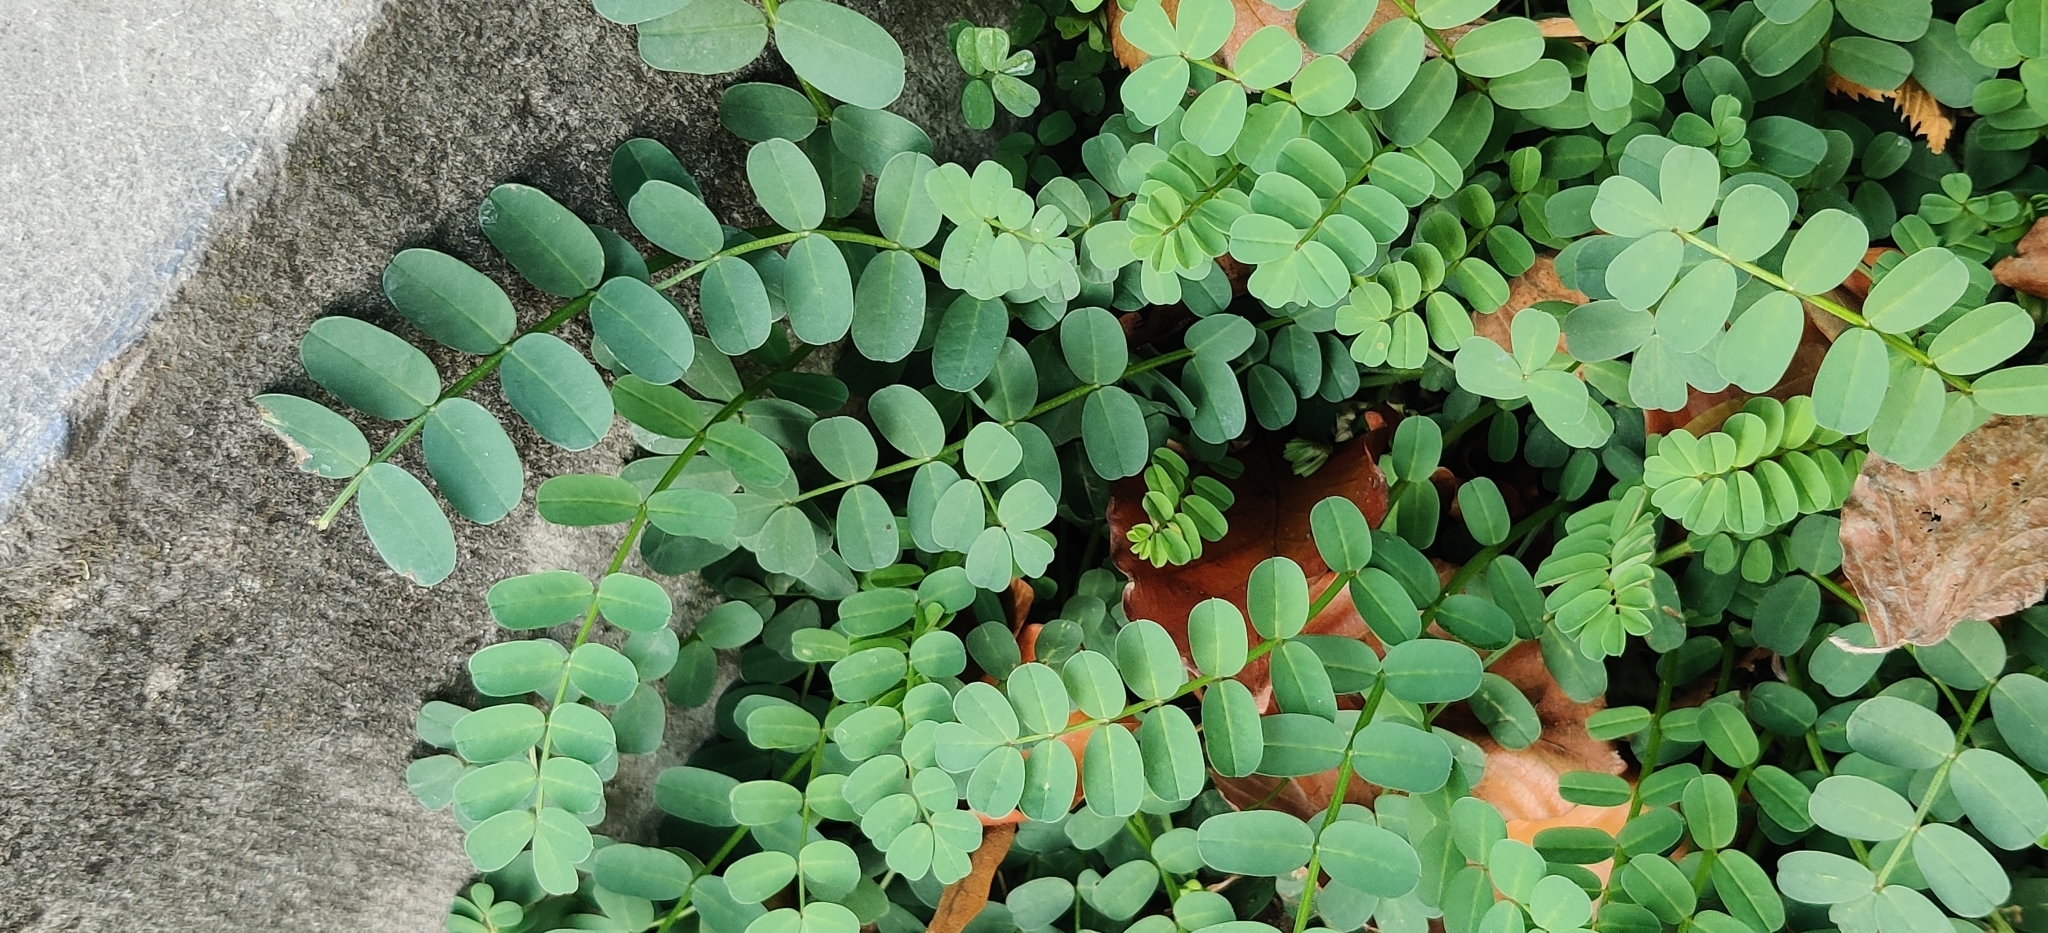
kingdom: Plantae
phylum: Tracheophyta
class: Magnoliopsida
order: Fabales
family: Fabaceae
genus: Coronilla
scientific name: Coronilla varia
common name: Crownvetch
